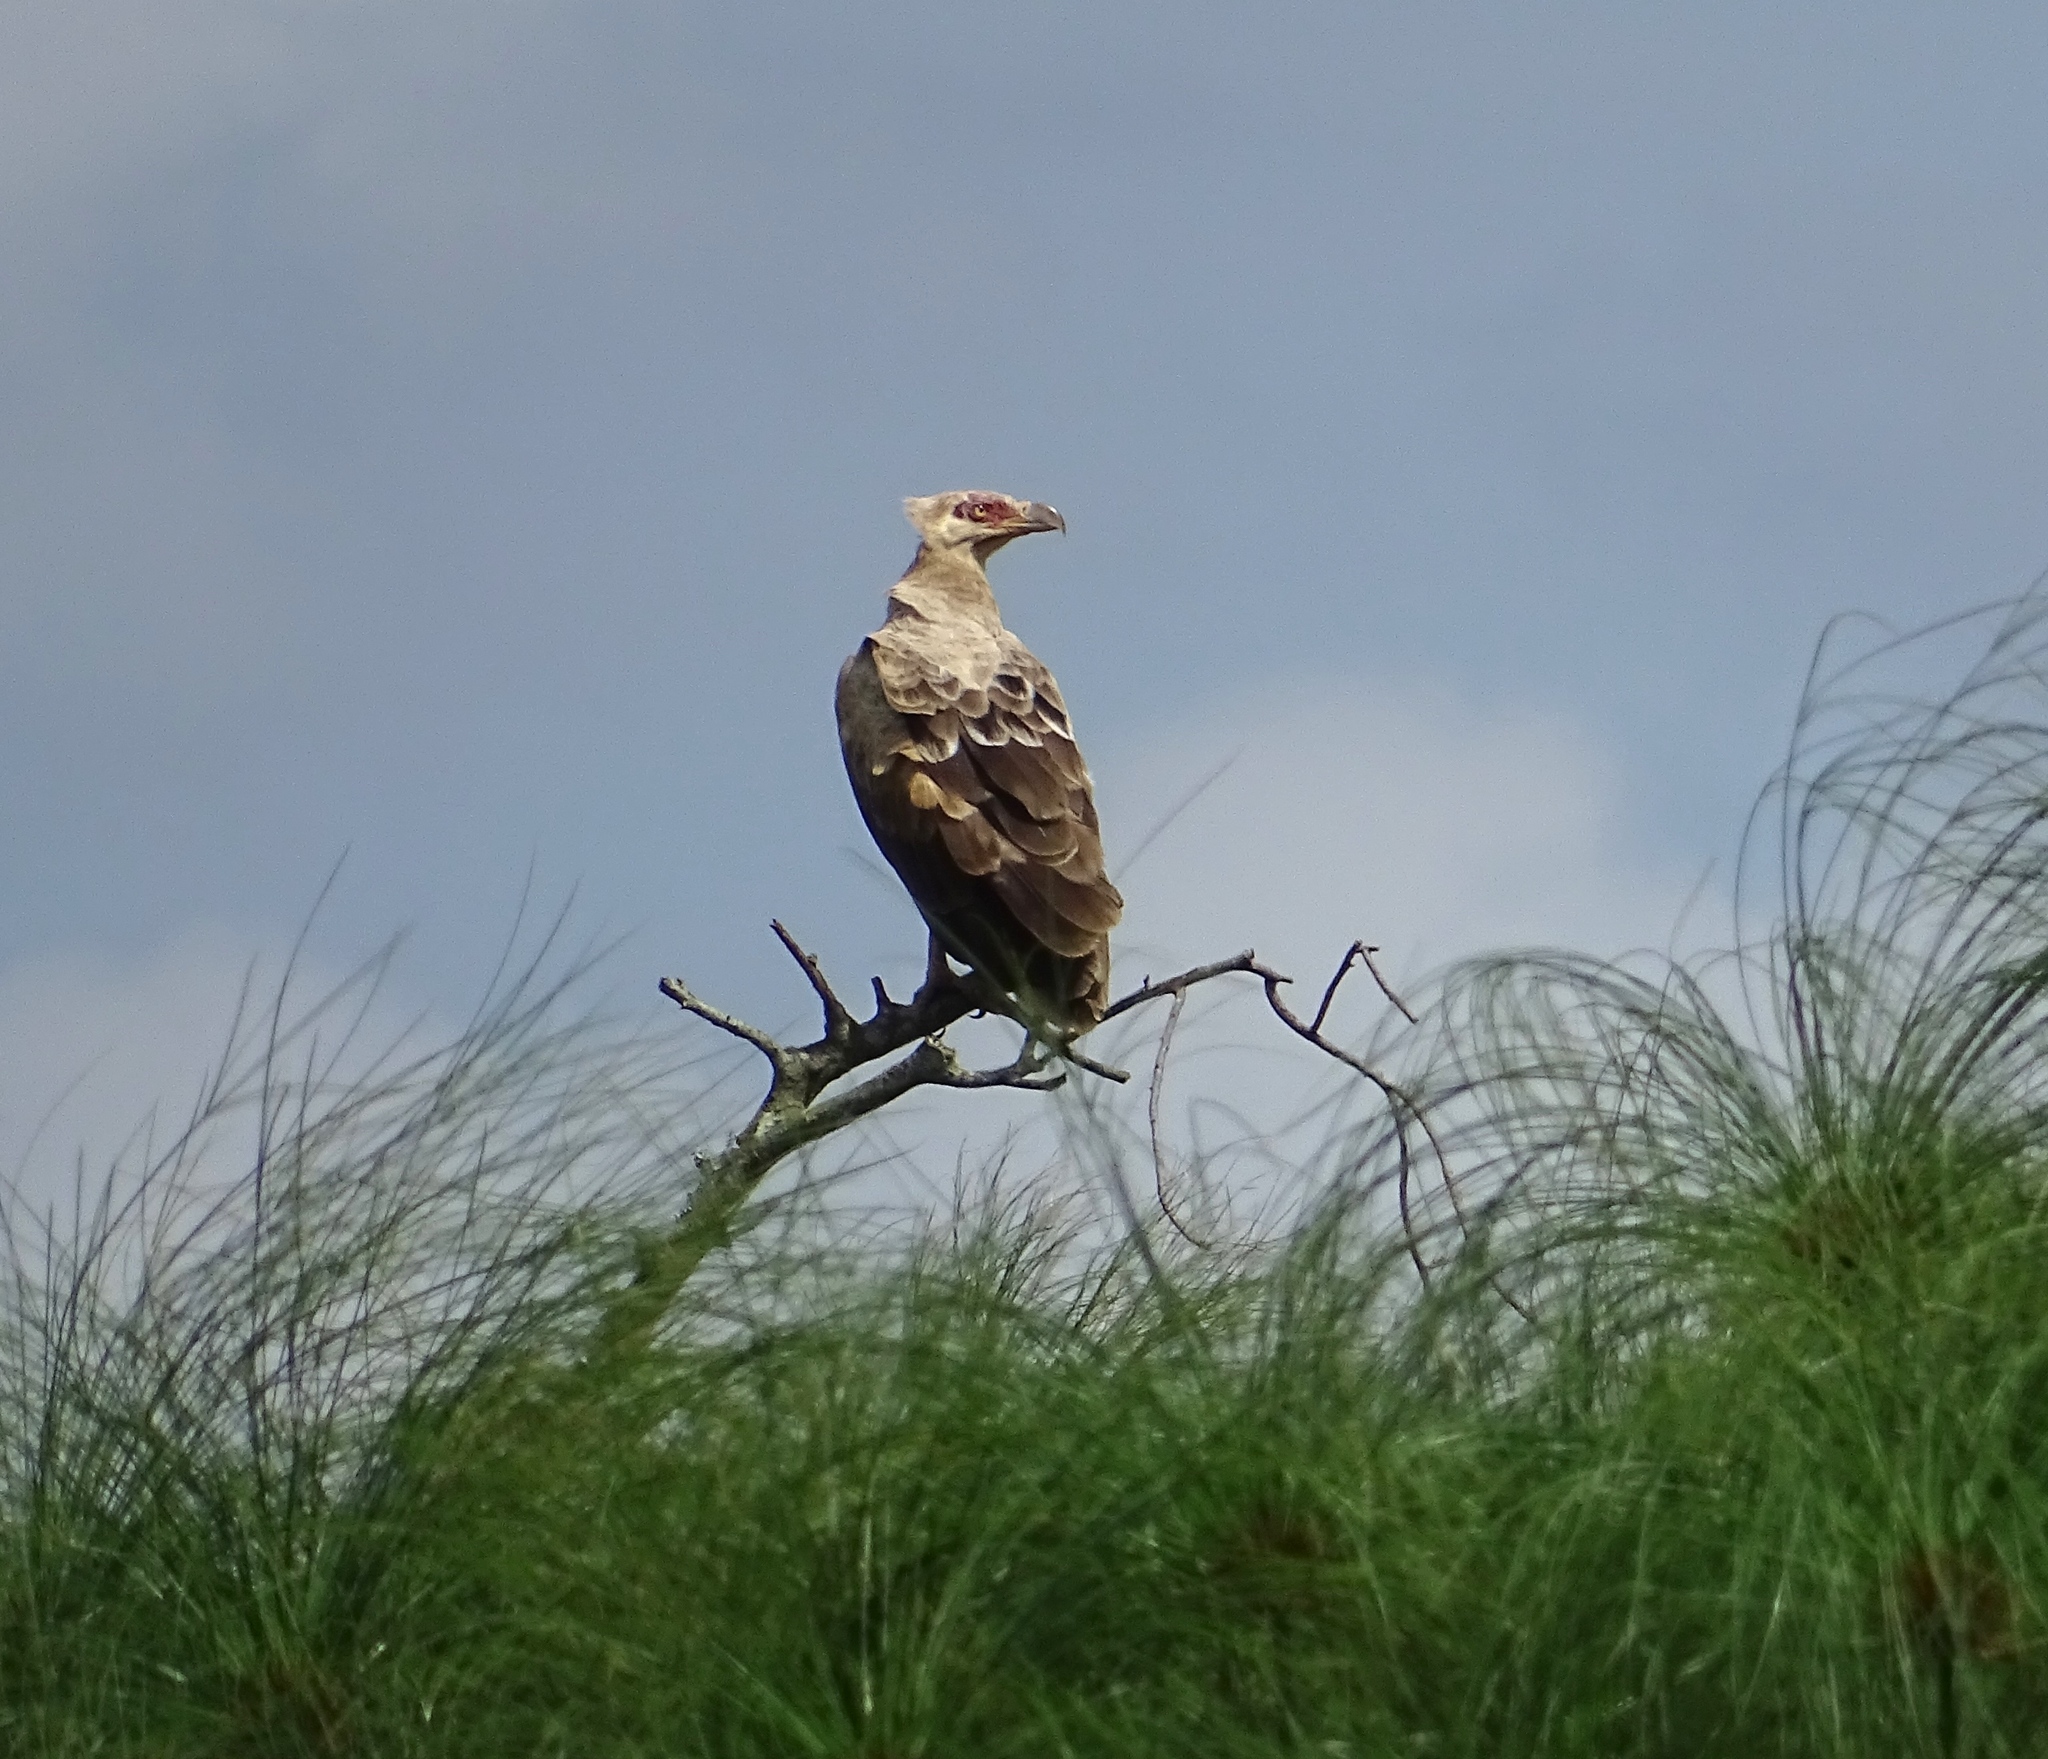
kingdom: Animalia
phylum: Chordata
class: Aves
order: Accipitriformes
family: Accipitridae
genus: Gypohierax
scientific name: Gypohierax angolensis
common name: Palm-nut vulture
